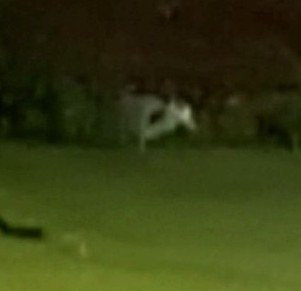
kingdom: Animalia
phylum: Chordata
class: Aves
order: Pelecaniformes
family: Ardeidae
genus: Ardea
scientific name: Ardea cinerea
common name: Grey heron
